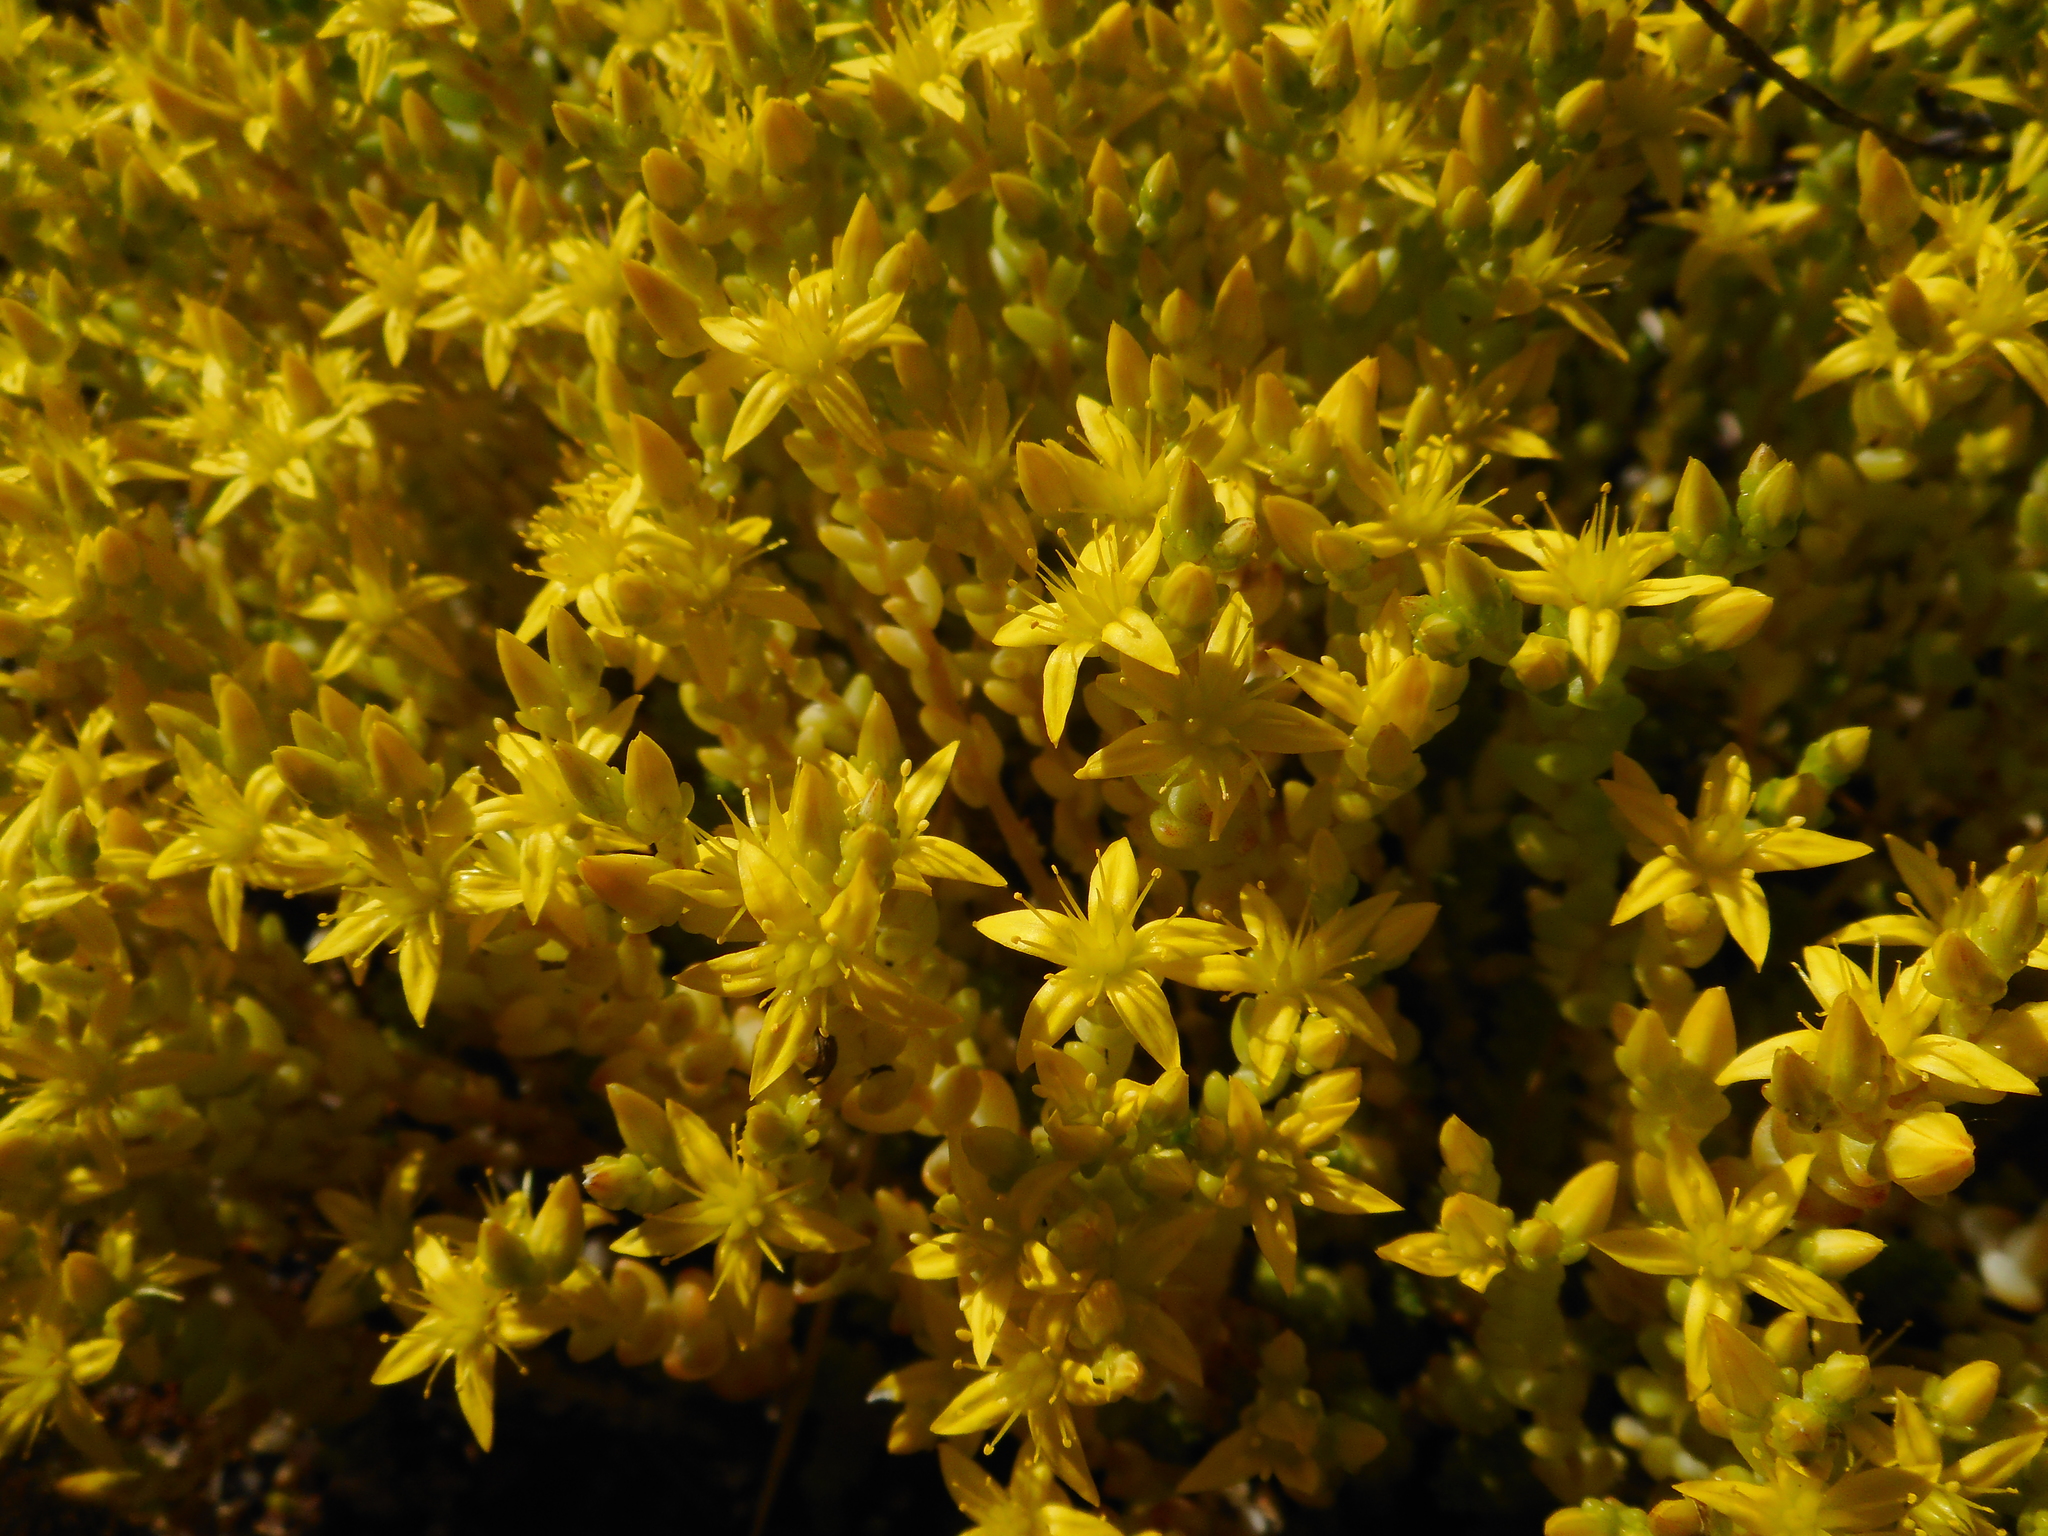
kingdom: Plantae
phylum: Tracheophyta
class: Magnoliopsida
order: Saxifragales
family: Crassulaceae
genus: Sedum
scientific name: Sedum acre
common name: Biting stonecrop
